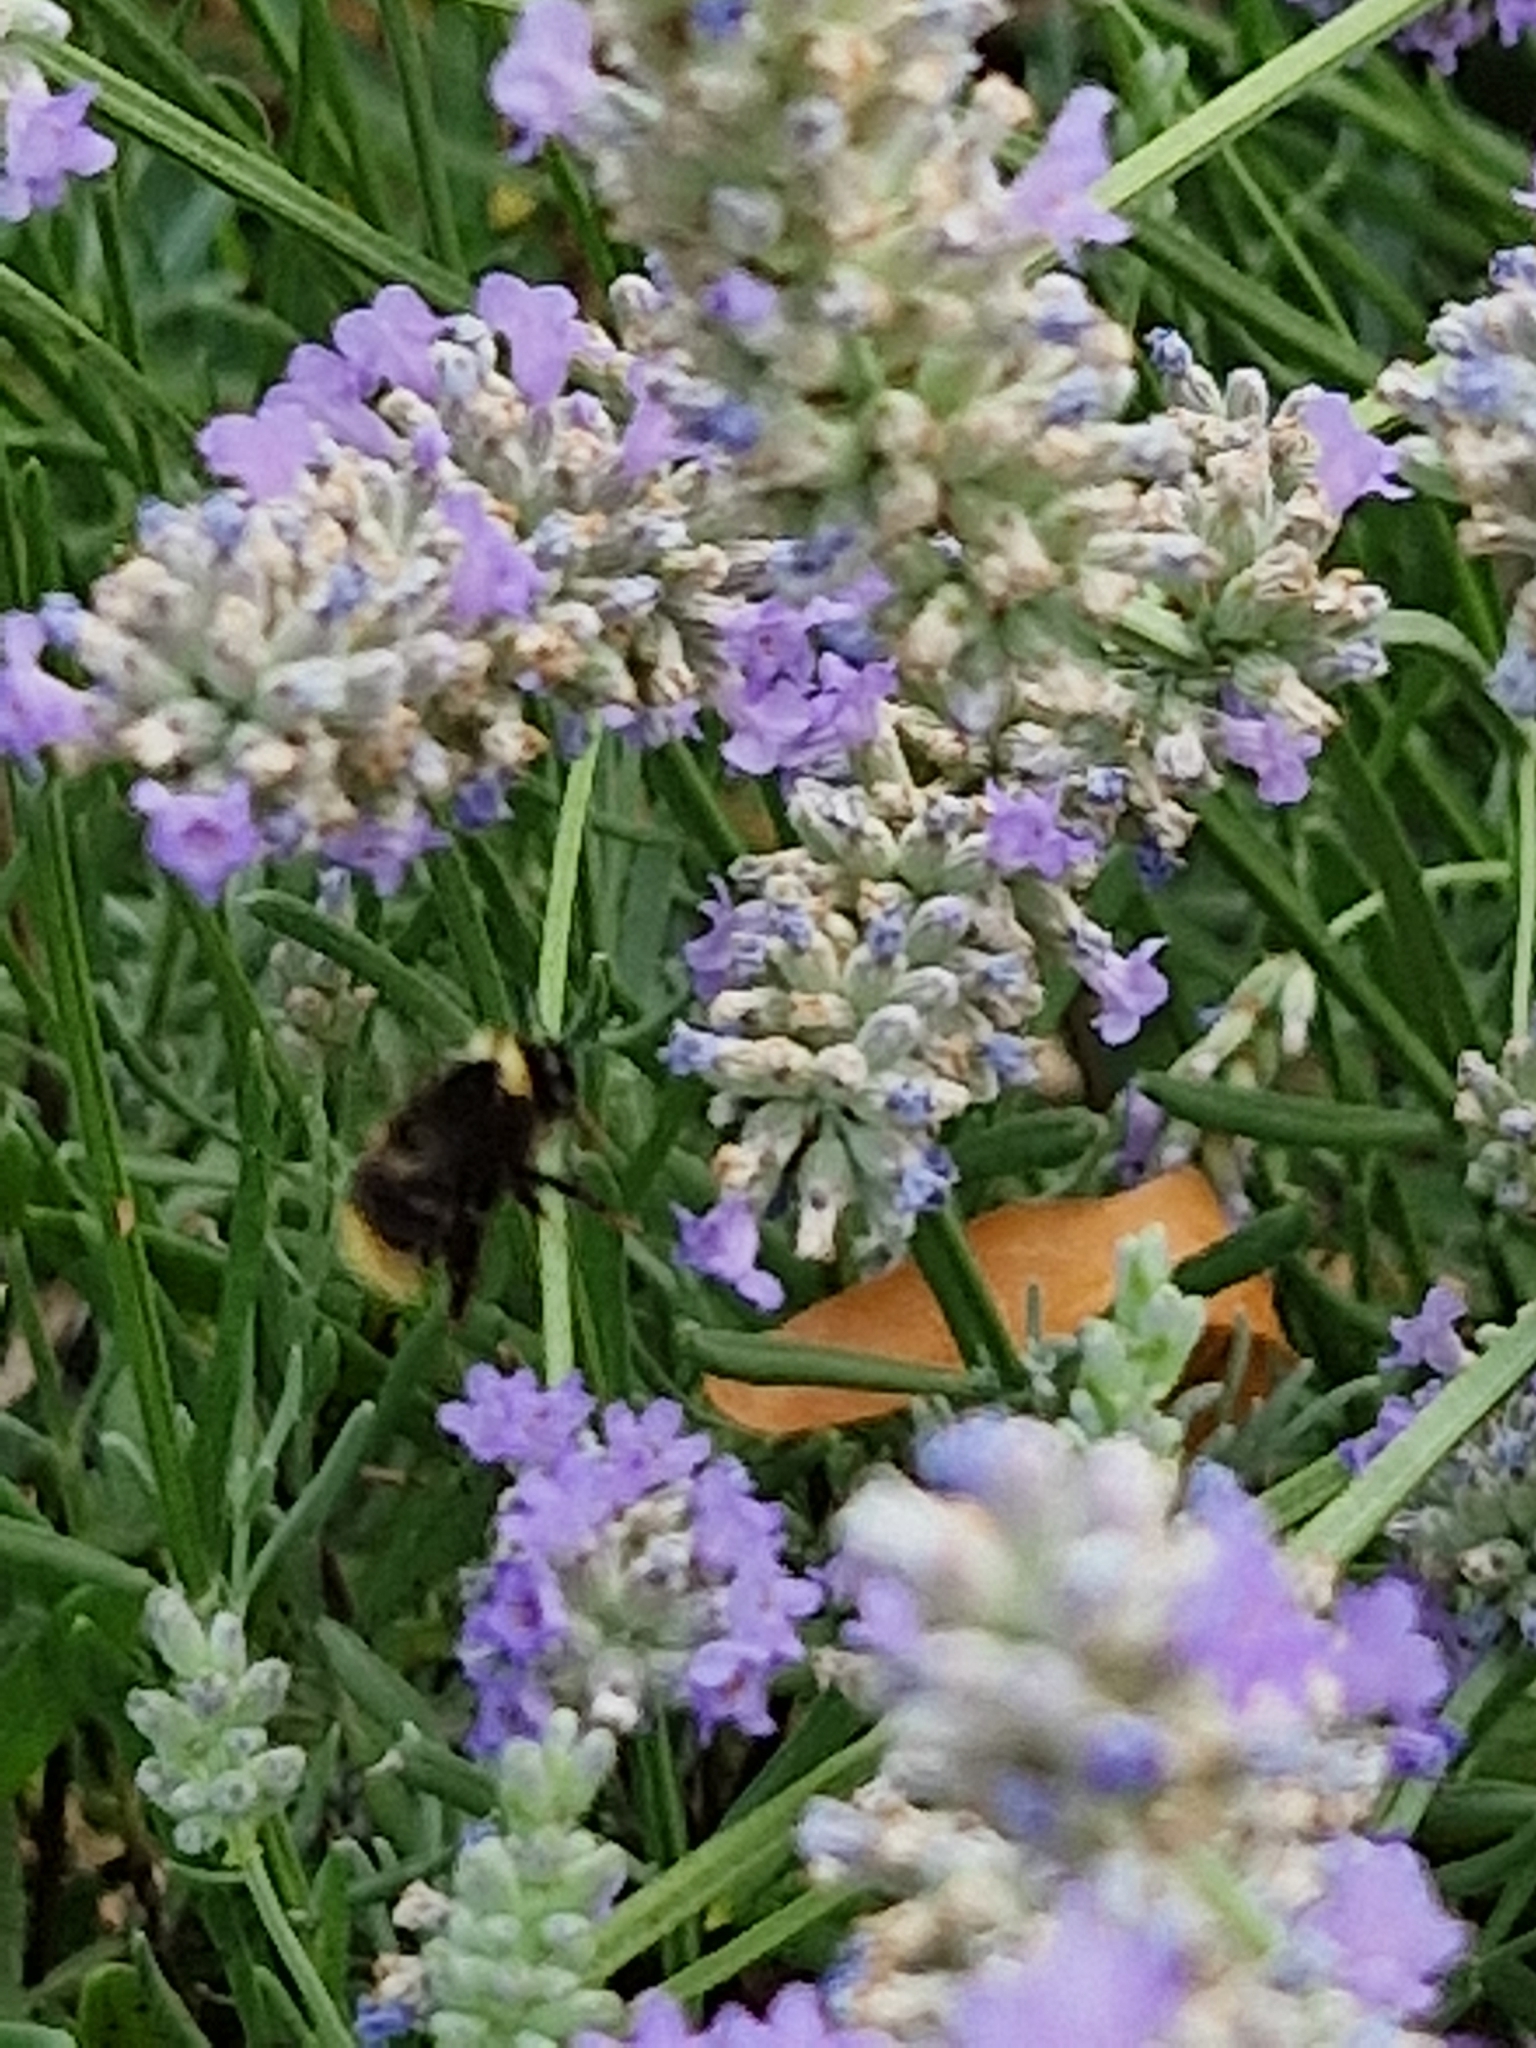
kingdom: Animalia
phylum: Arthropoda
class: Insecta
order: Hymenoptera
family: Apidae
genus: Bombus
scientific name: Bombus pratorum
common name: Early humble-bee
